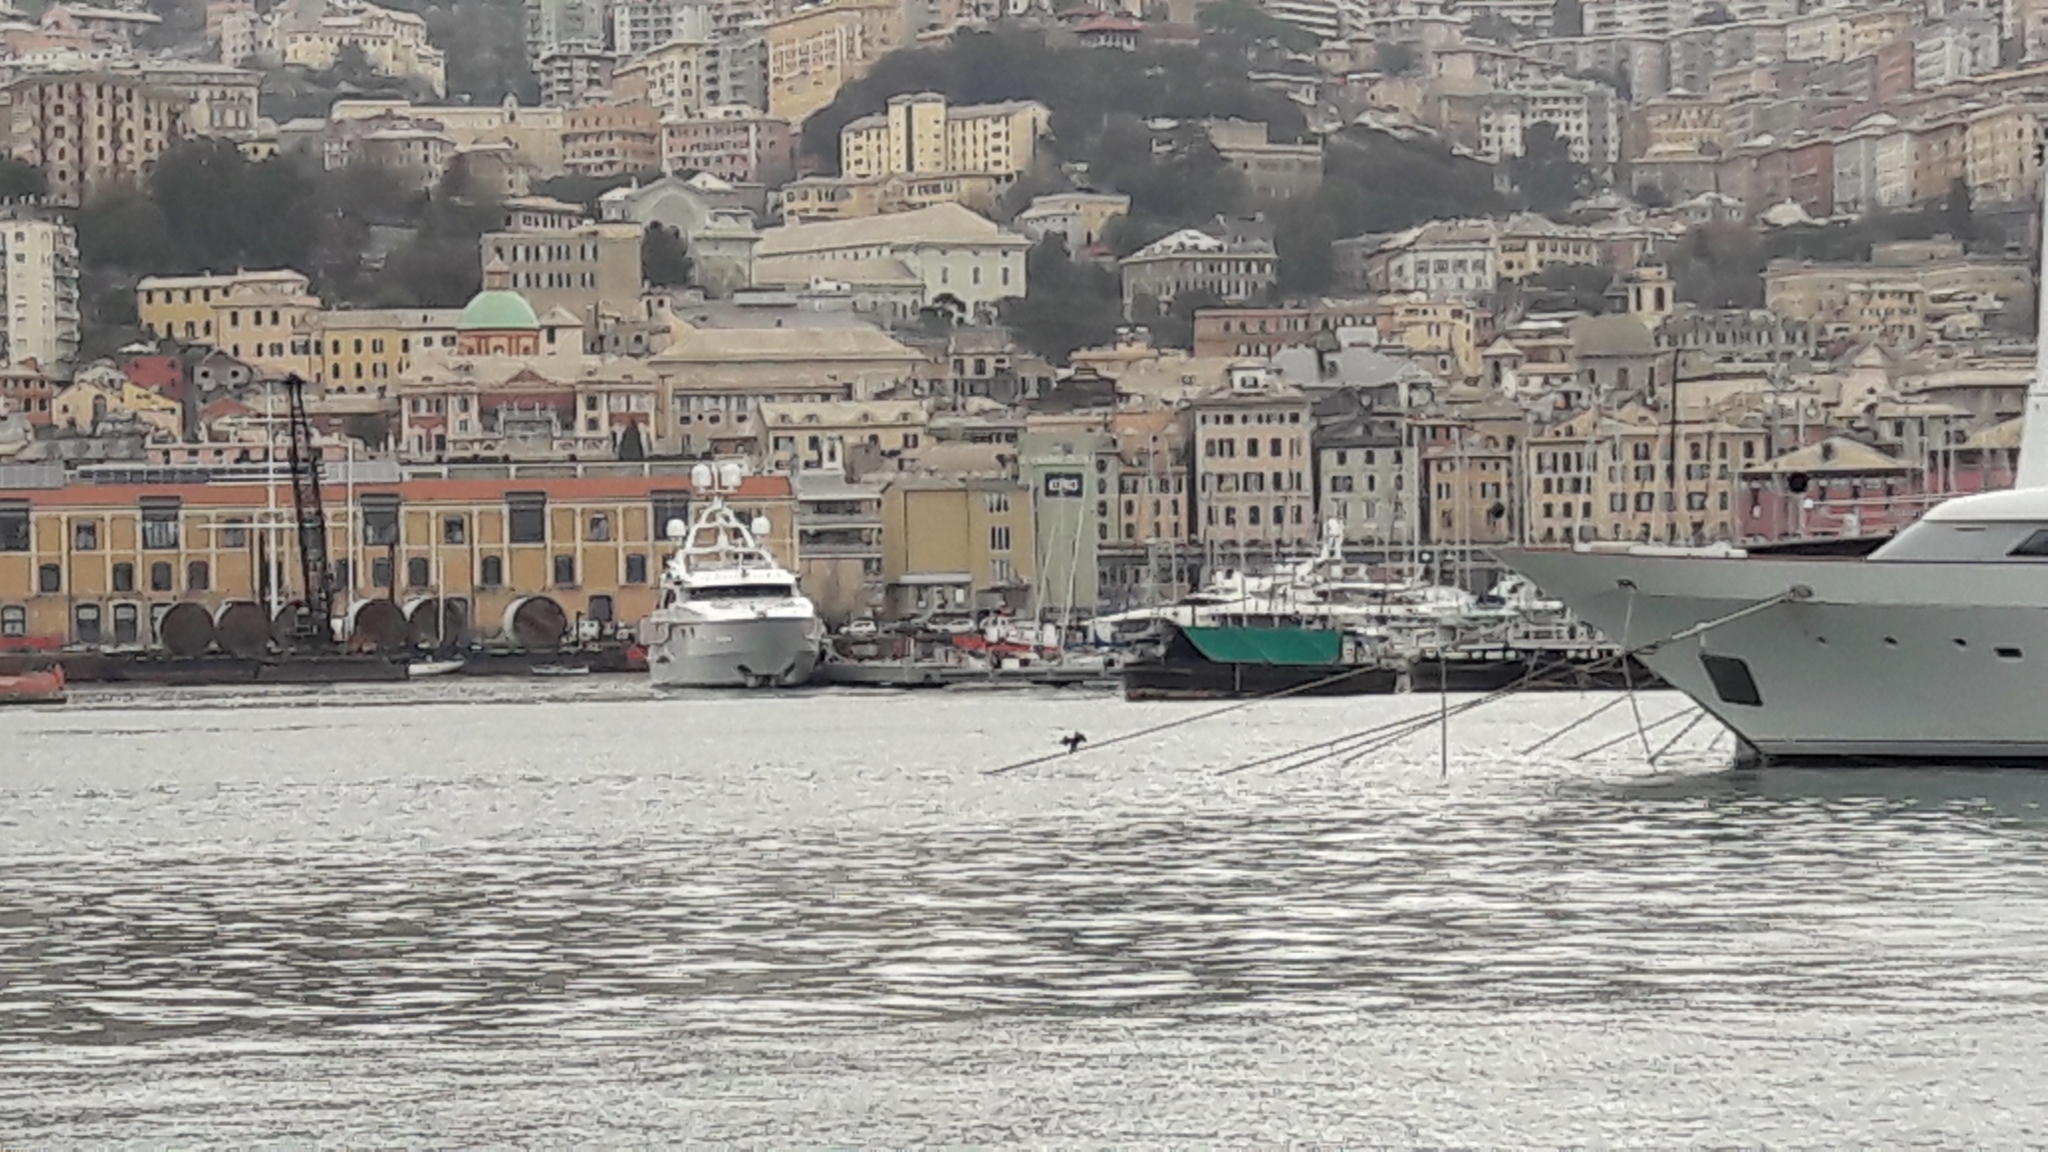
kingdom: Animalia
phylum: Chordata
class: Aves
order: Suliformes
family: Phalacrocoracidae
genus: Phalacrocorax
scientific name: Phalacrocorax carbo
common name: Great cormorant
